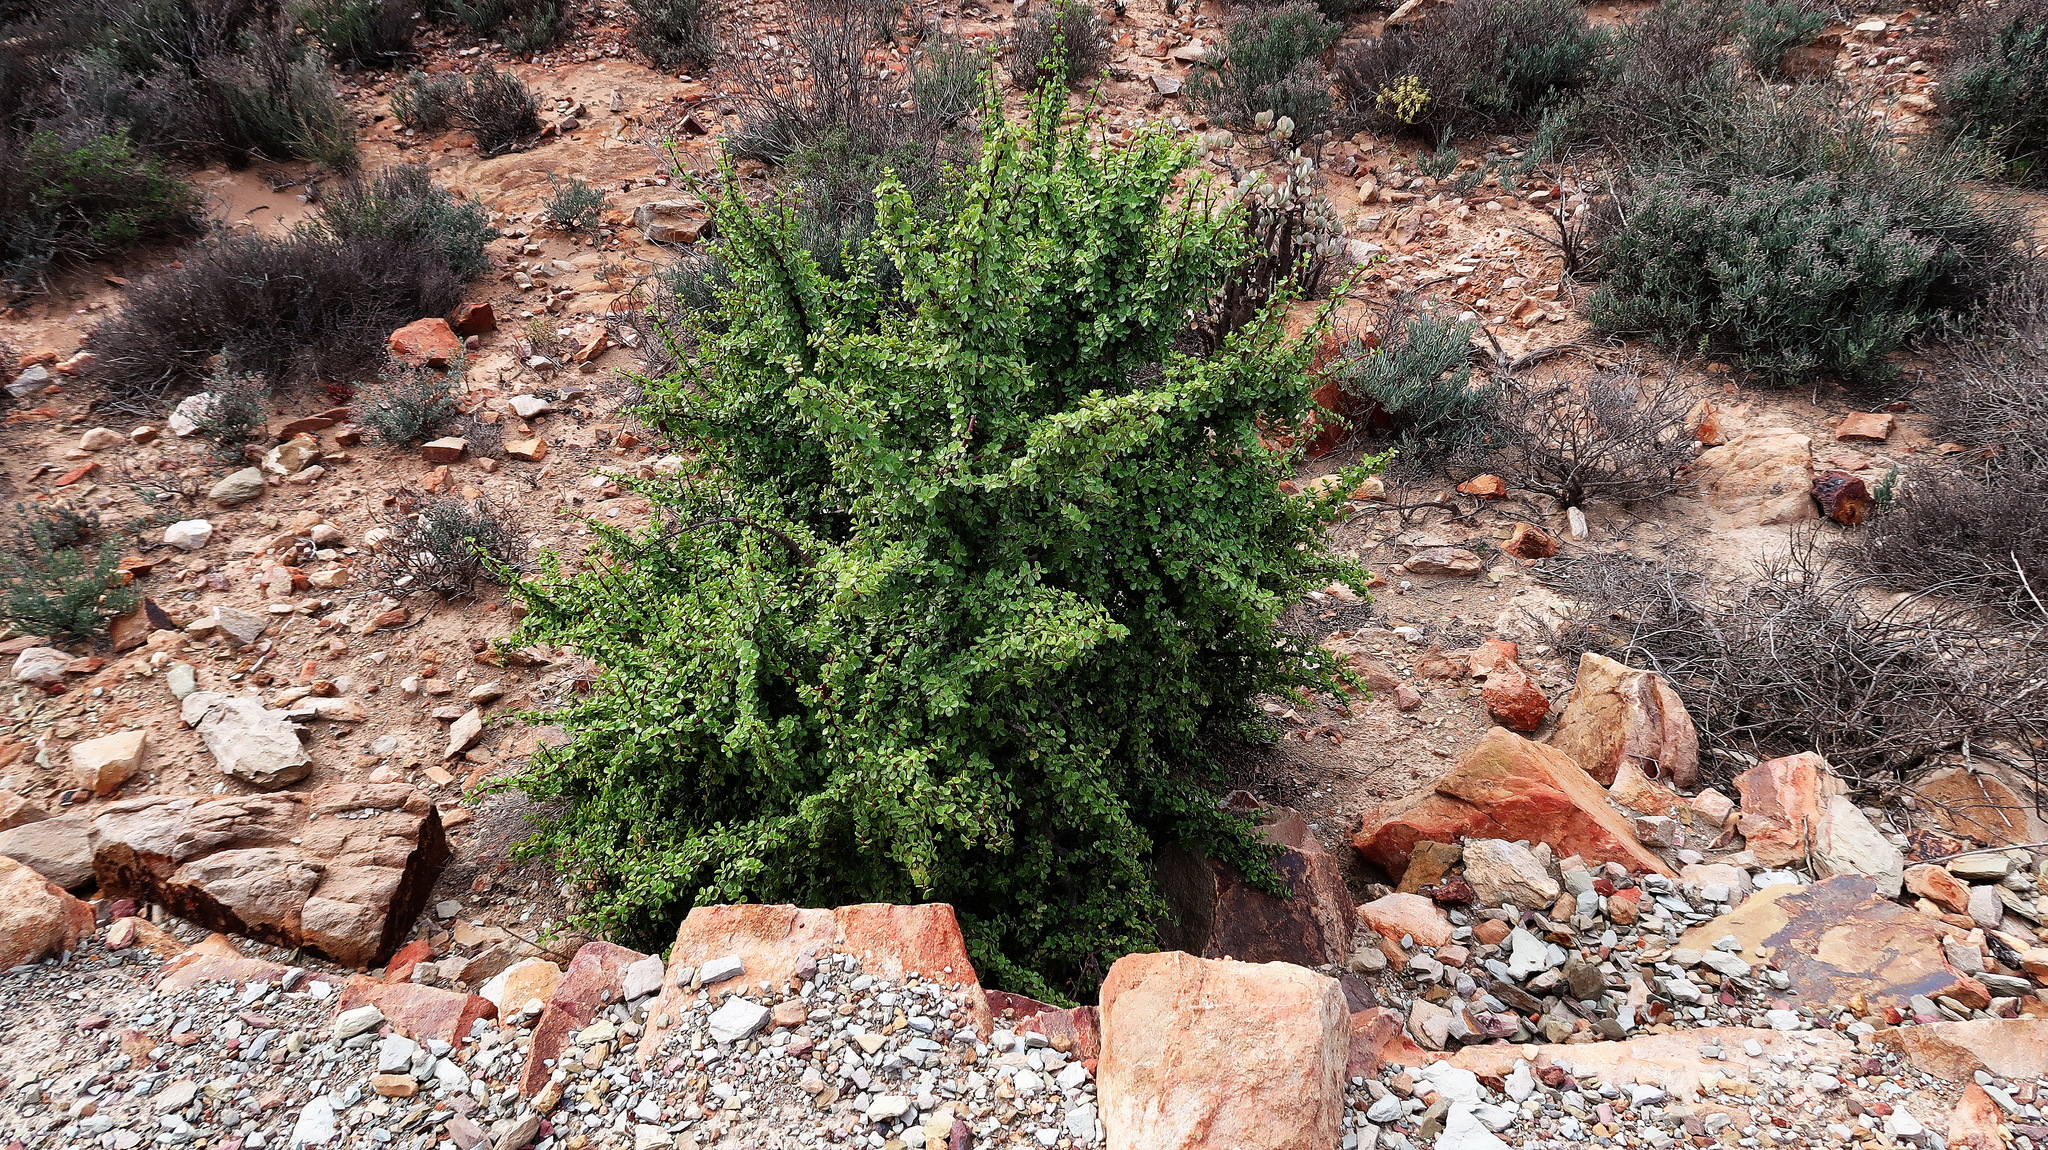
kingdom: Plantae
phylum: Tracheophyta
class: Magnoliopsida
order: Caryophyllales
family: Didiereaceae
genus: Portulacaria
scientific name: Portulacaria afra
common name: Elephant-bush
